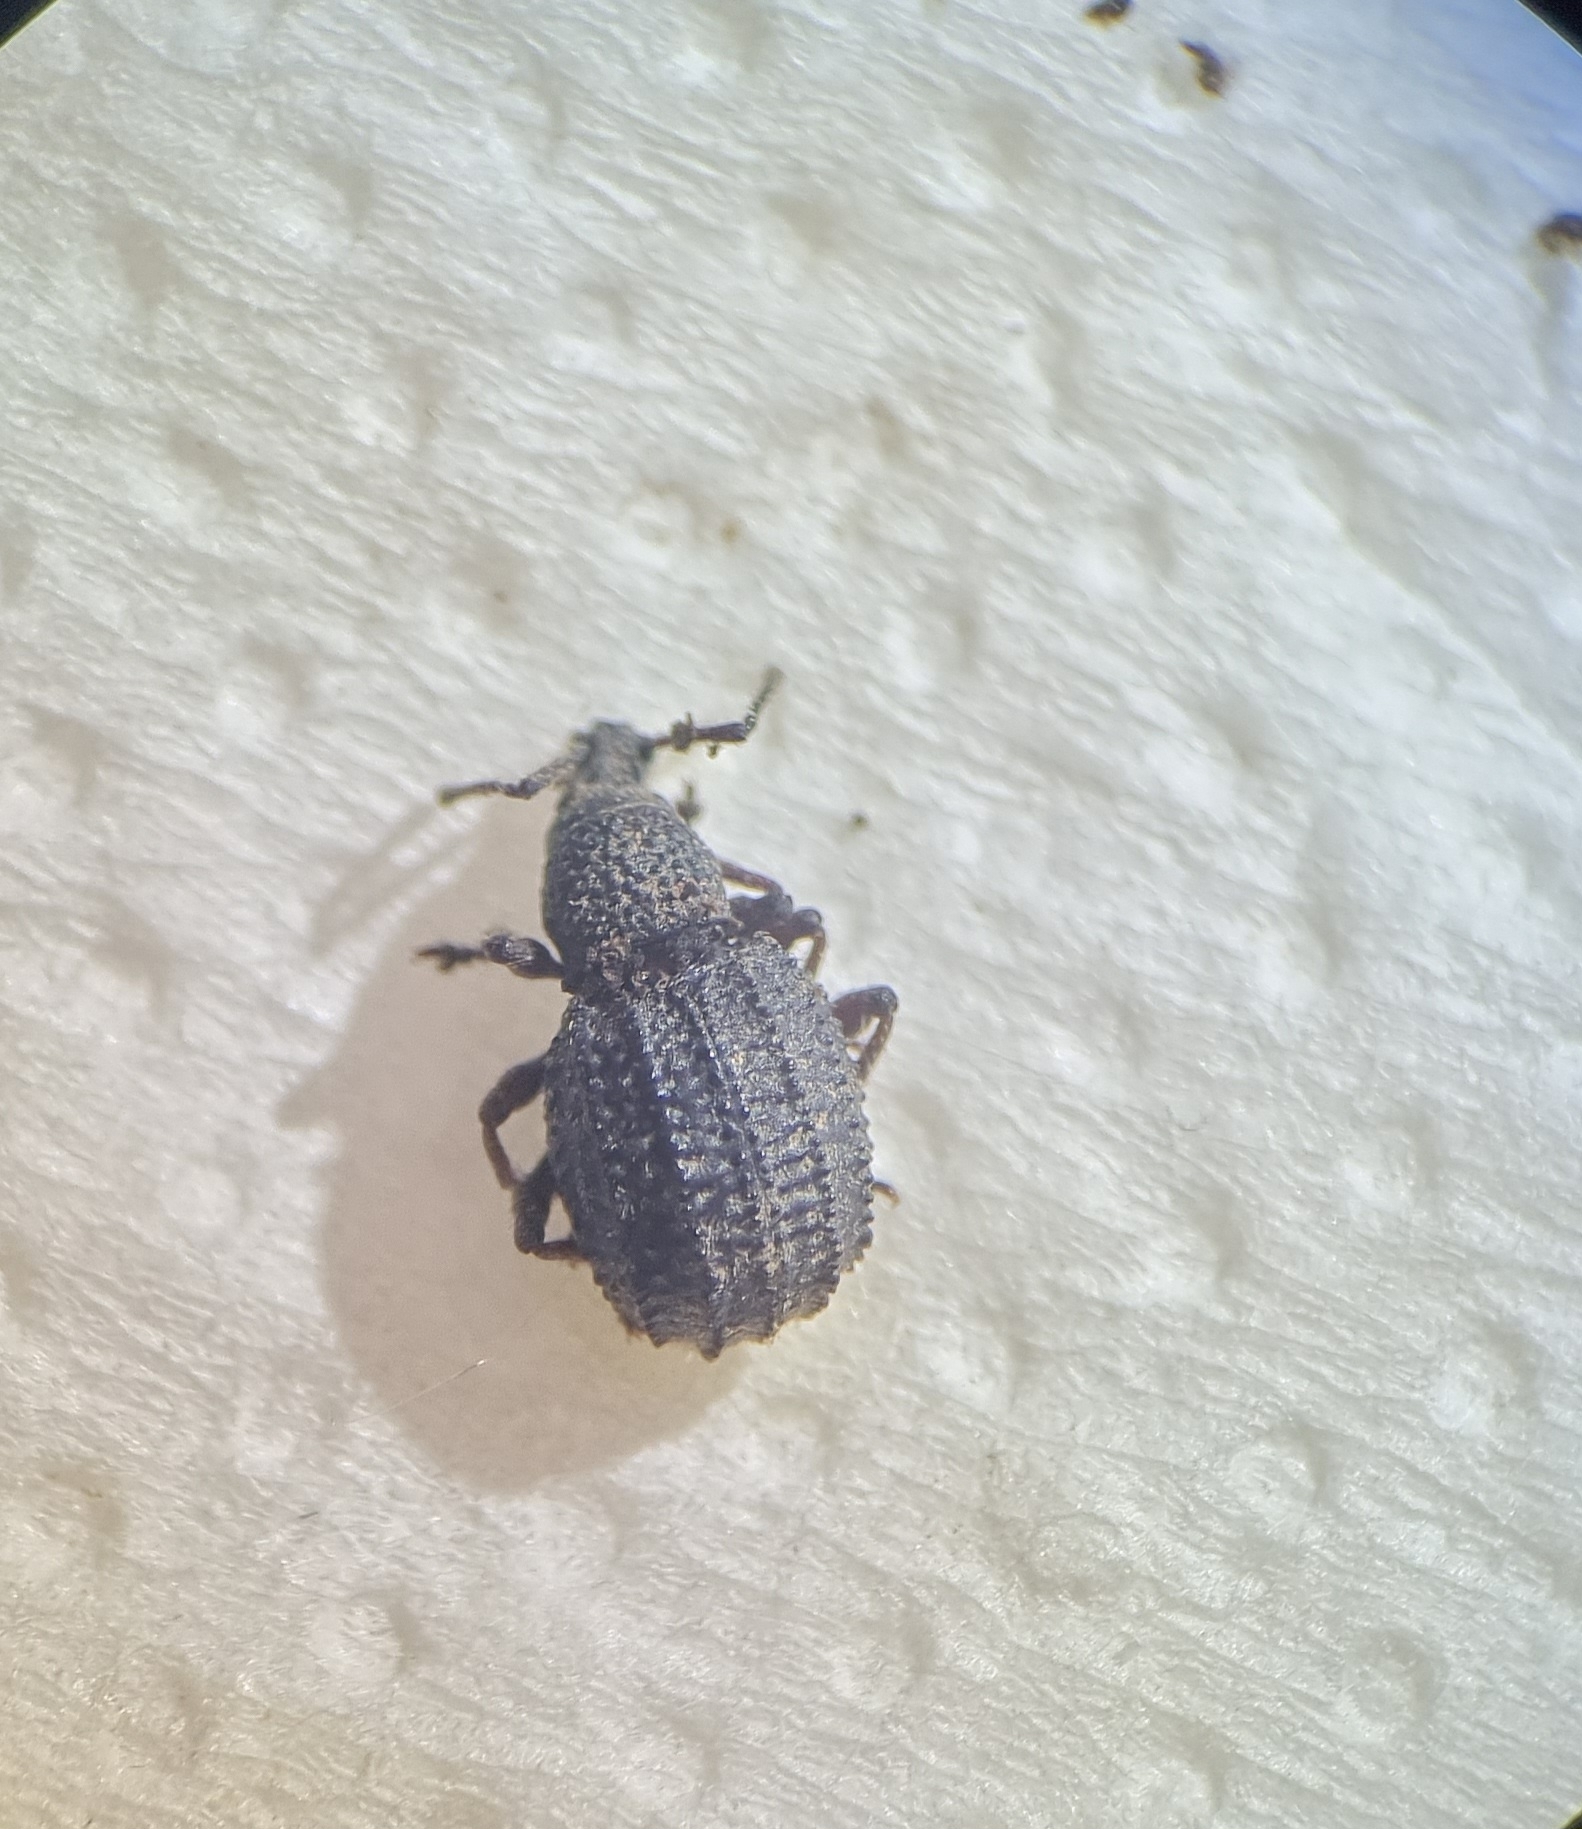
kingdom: Animalia
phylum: Arthropoda
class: Insecta
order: Coleoptera
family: Curculionidae
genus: Otiorhynchus
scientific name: Otiorhynchus porcatus
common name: Weevil
